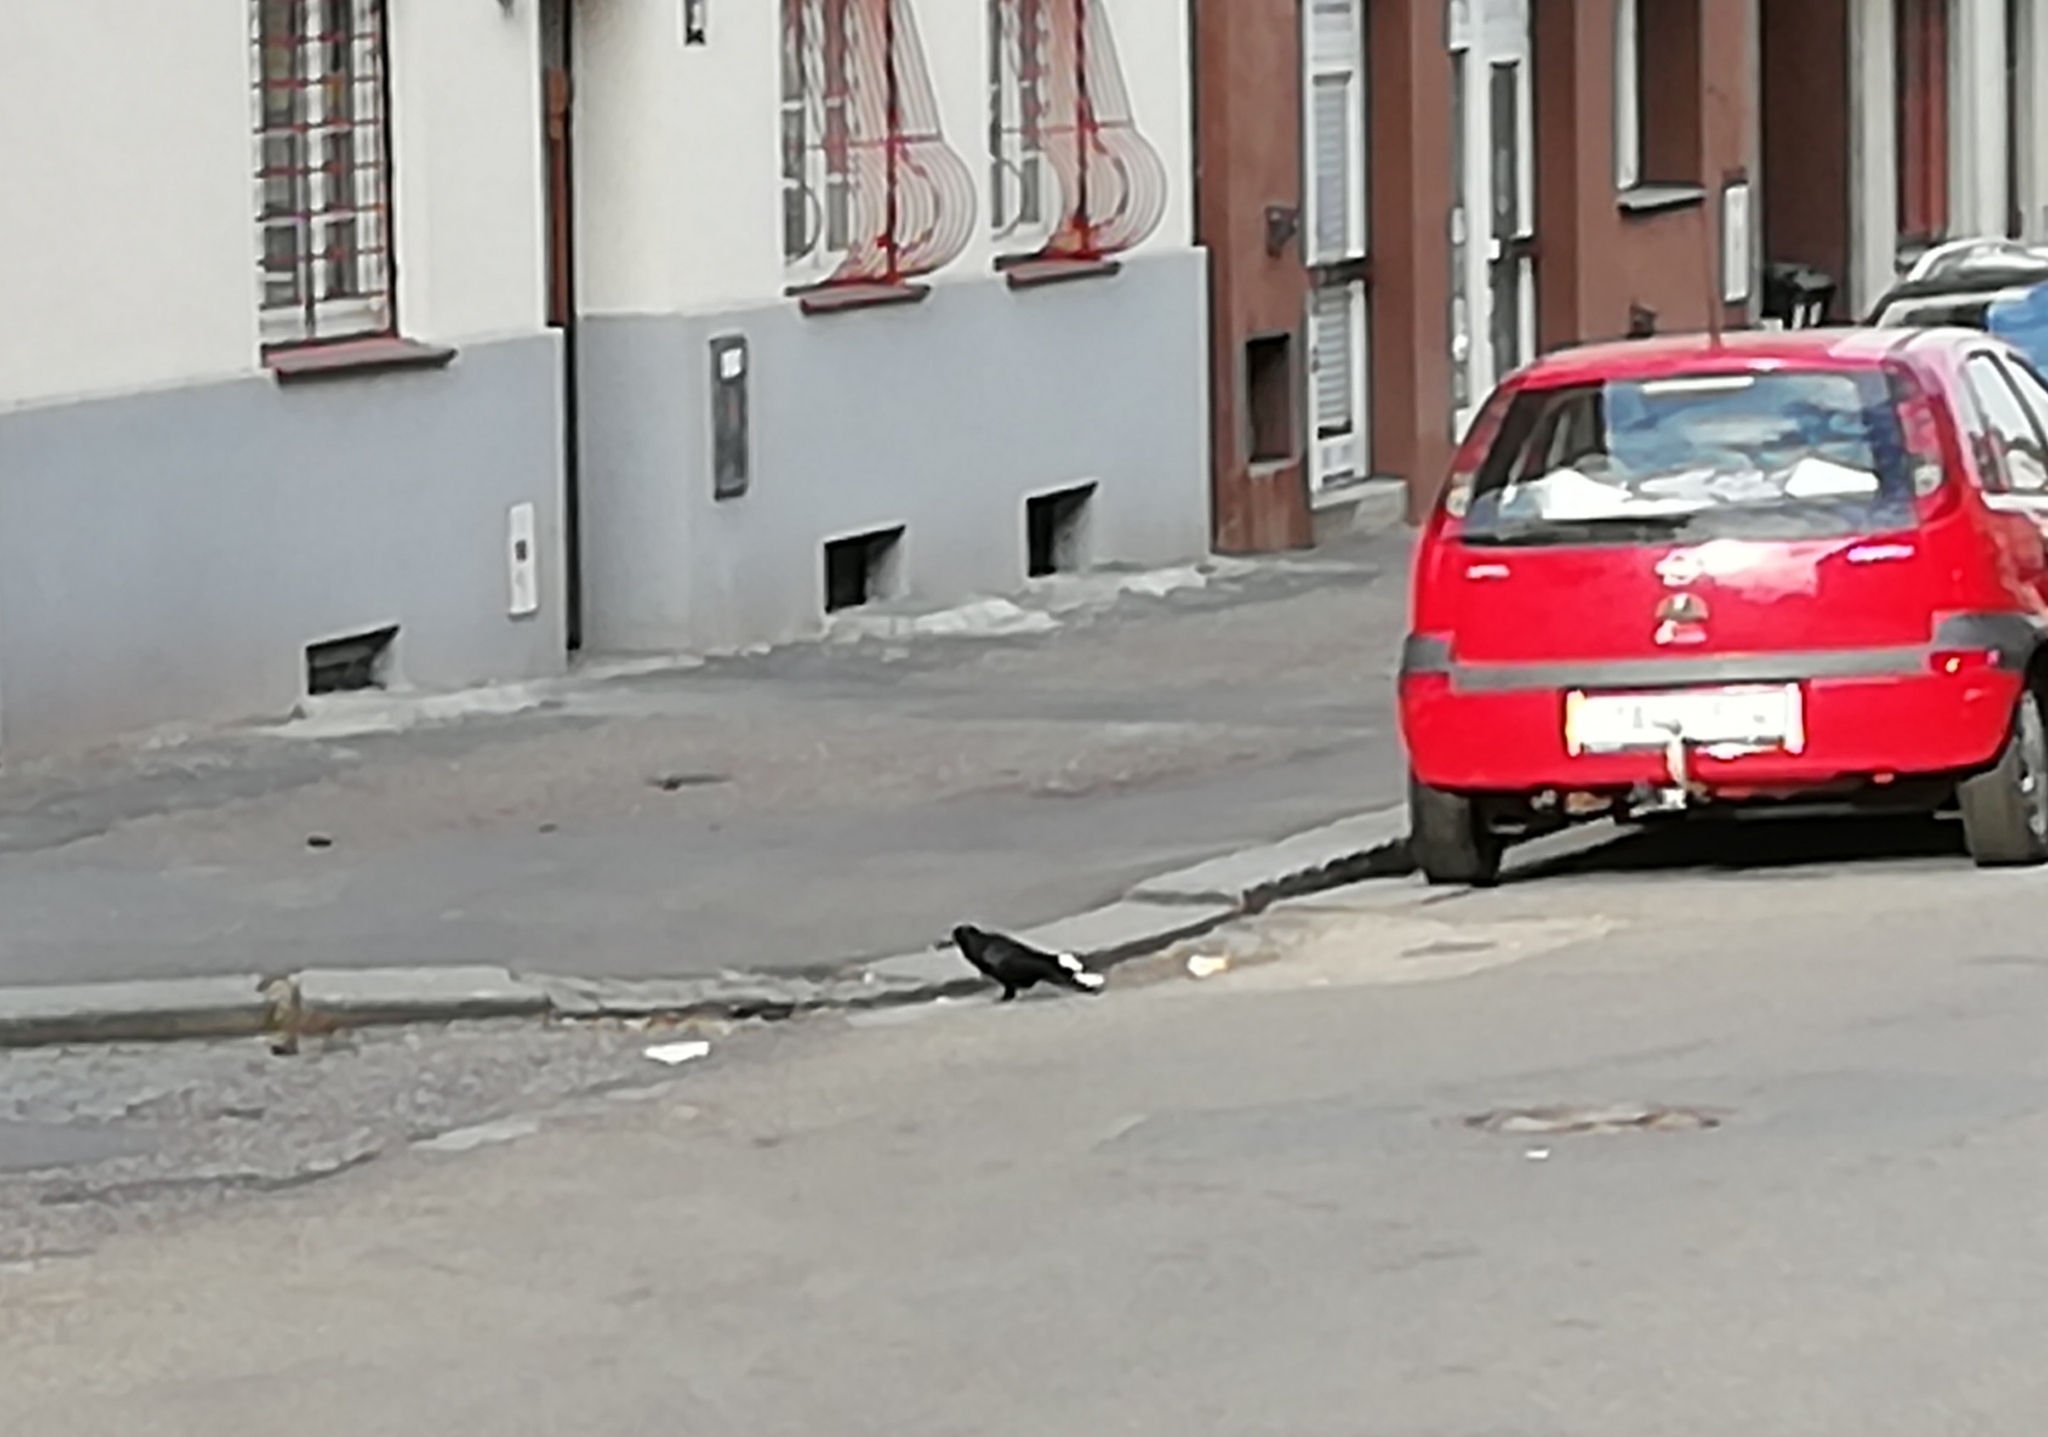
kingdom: Animalia
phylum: Chordata
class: Aves
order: Passeriformes
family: Corvidae
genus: Corvus
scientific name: Corvus frugilegus
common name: Rook
